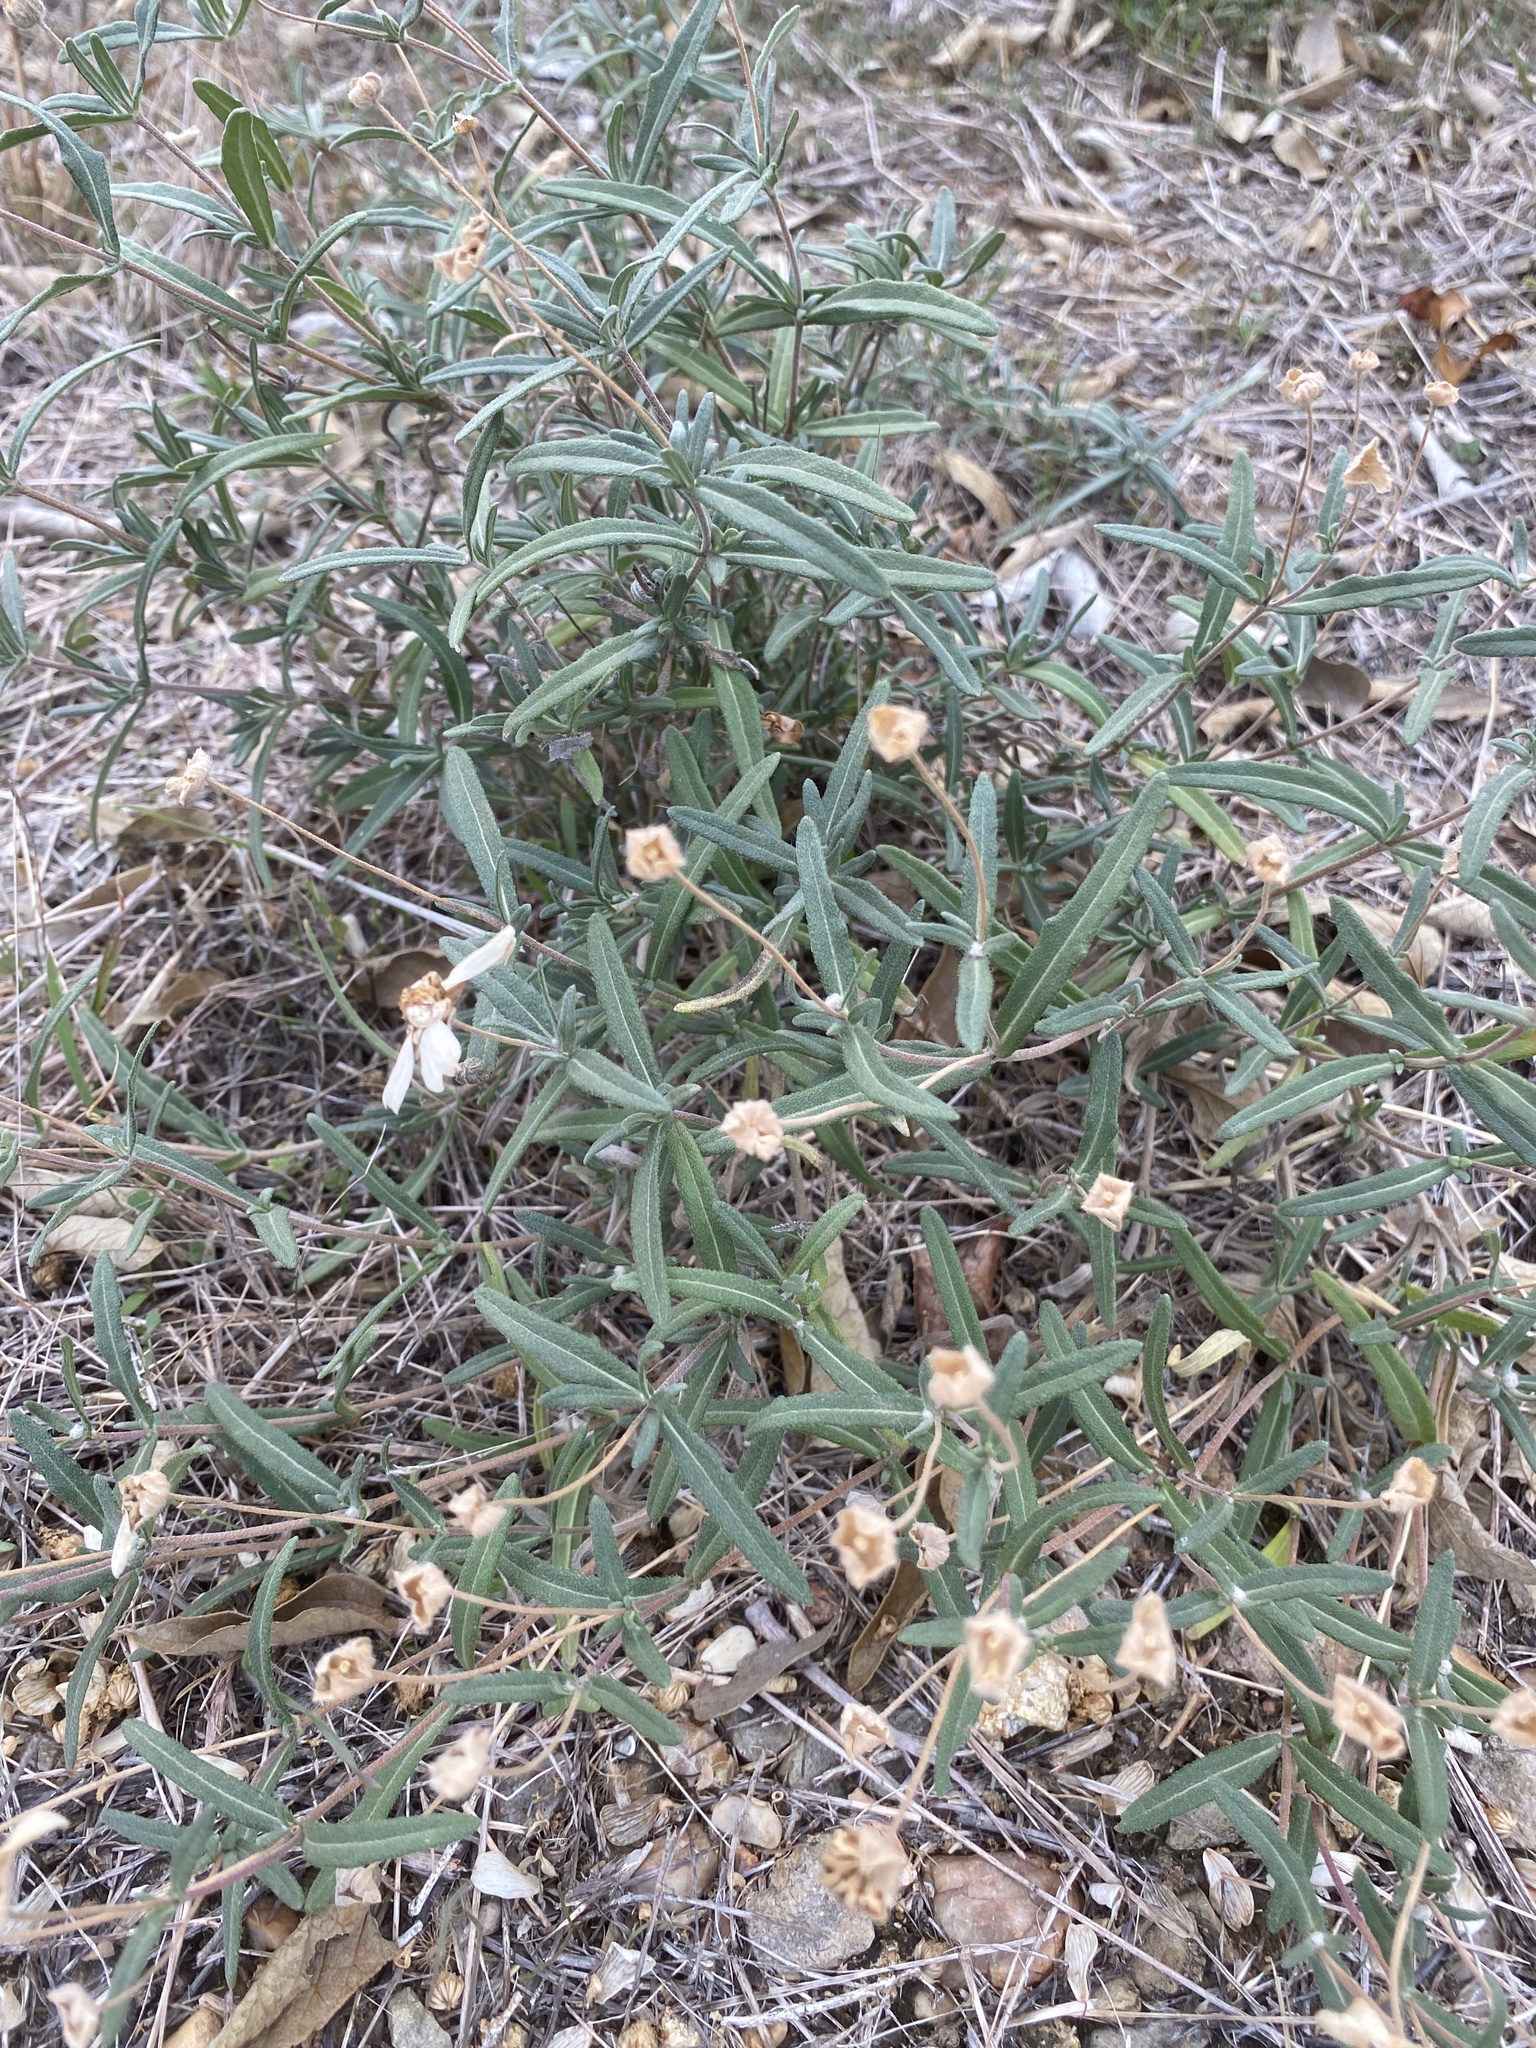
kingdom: Plantae
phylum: Tracheophyta
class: Magnoliopsida
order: Asterales
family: Asteraceae
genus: Melampodium
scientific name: Melampodium leucanthum
